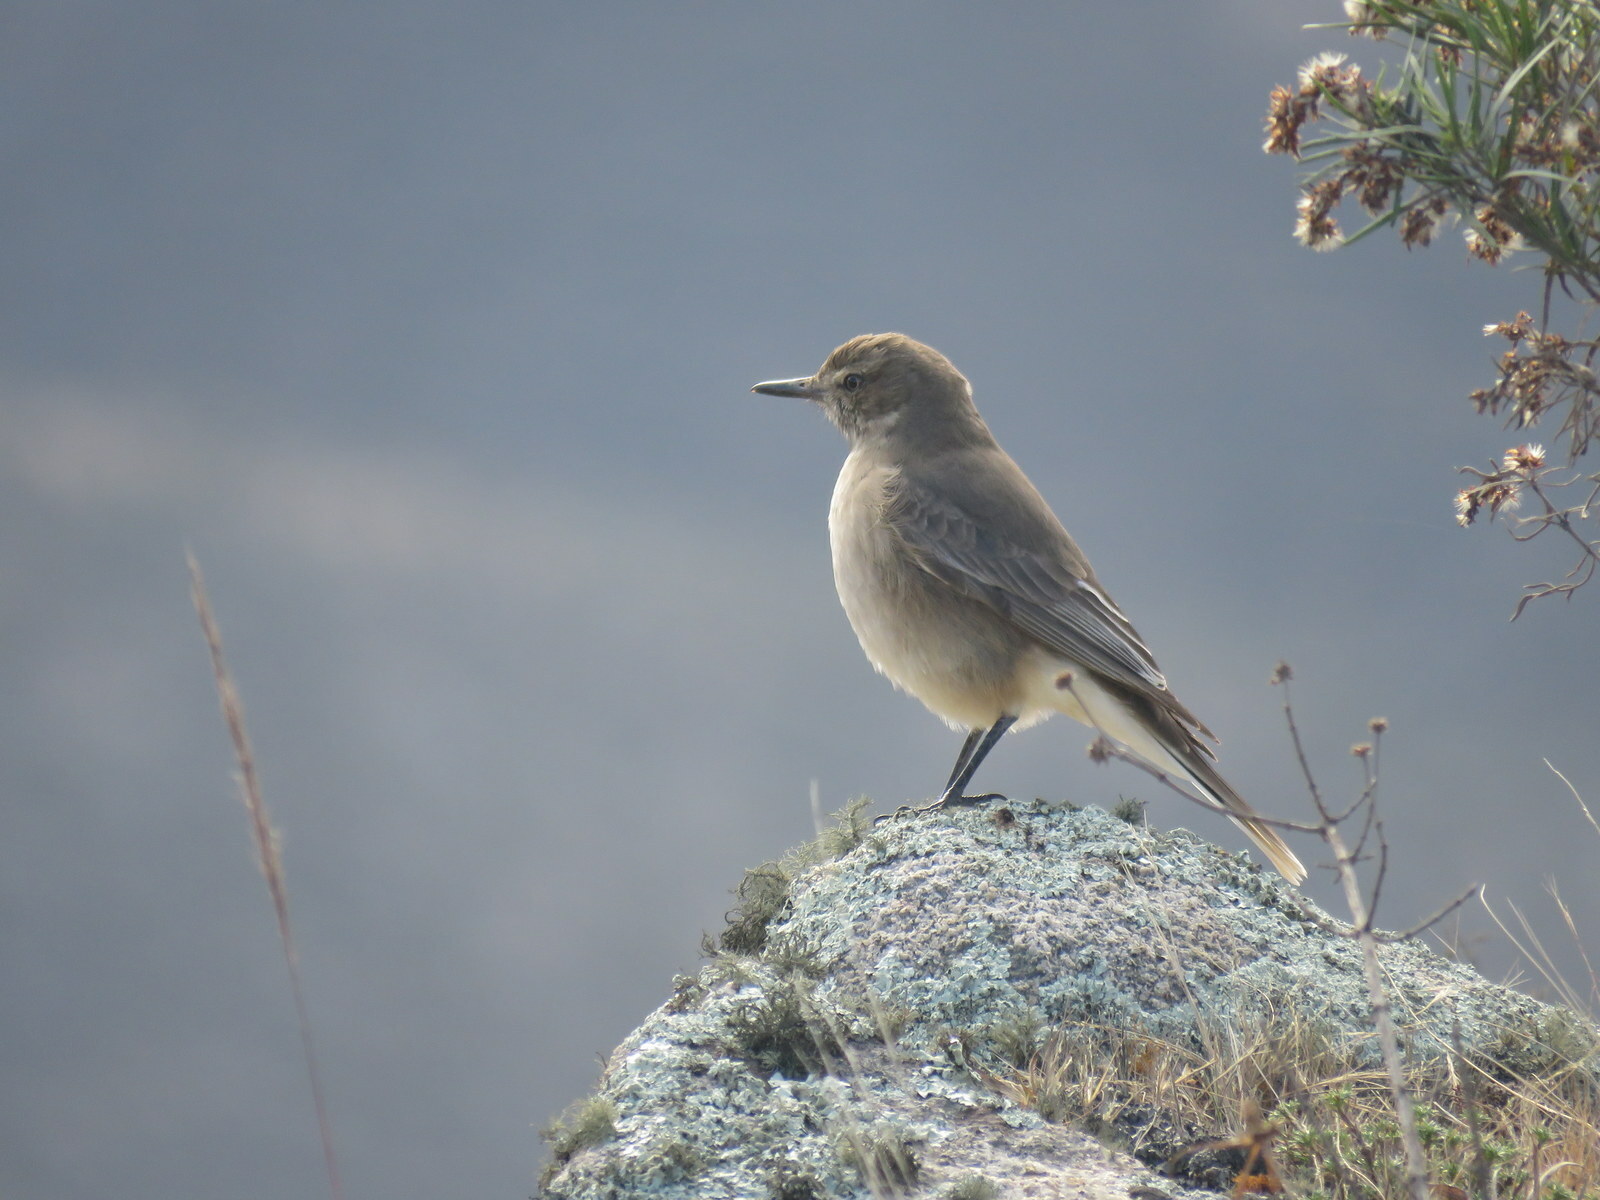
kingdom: Animalia
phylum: Chordata
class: Aves
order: Passeriformes
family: Tyrannidae
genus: Agriornis
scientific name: Agriornis montanus
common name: Black-billed shrike-tyrant
